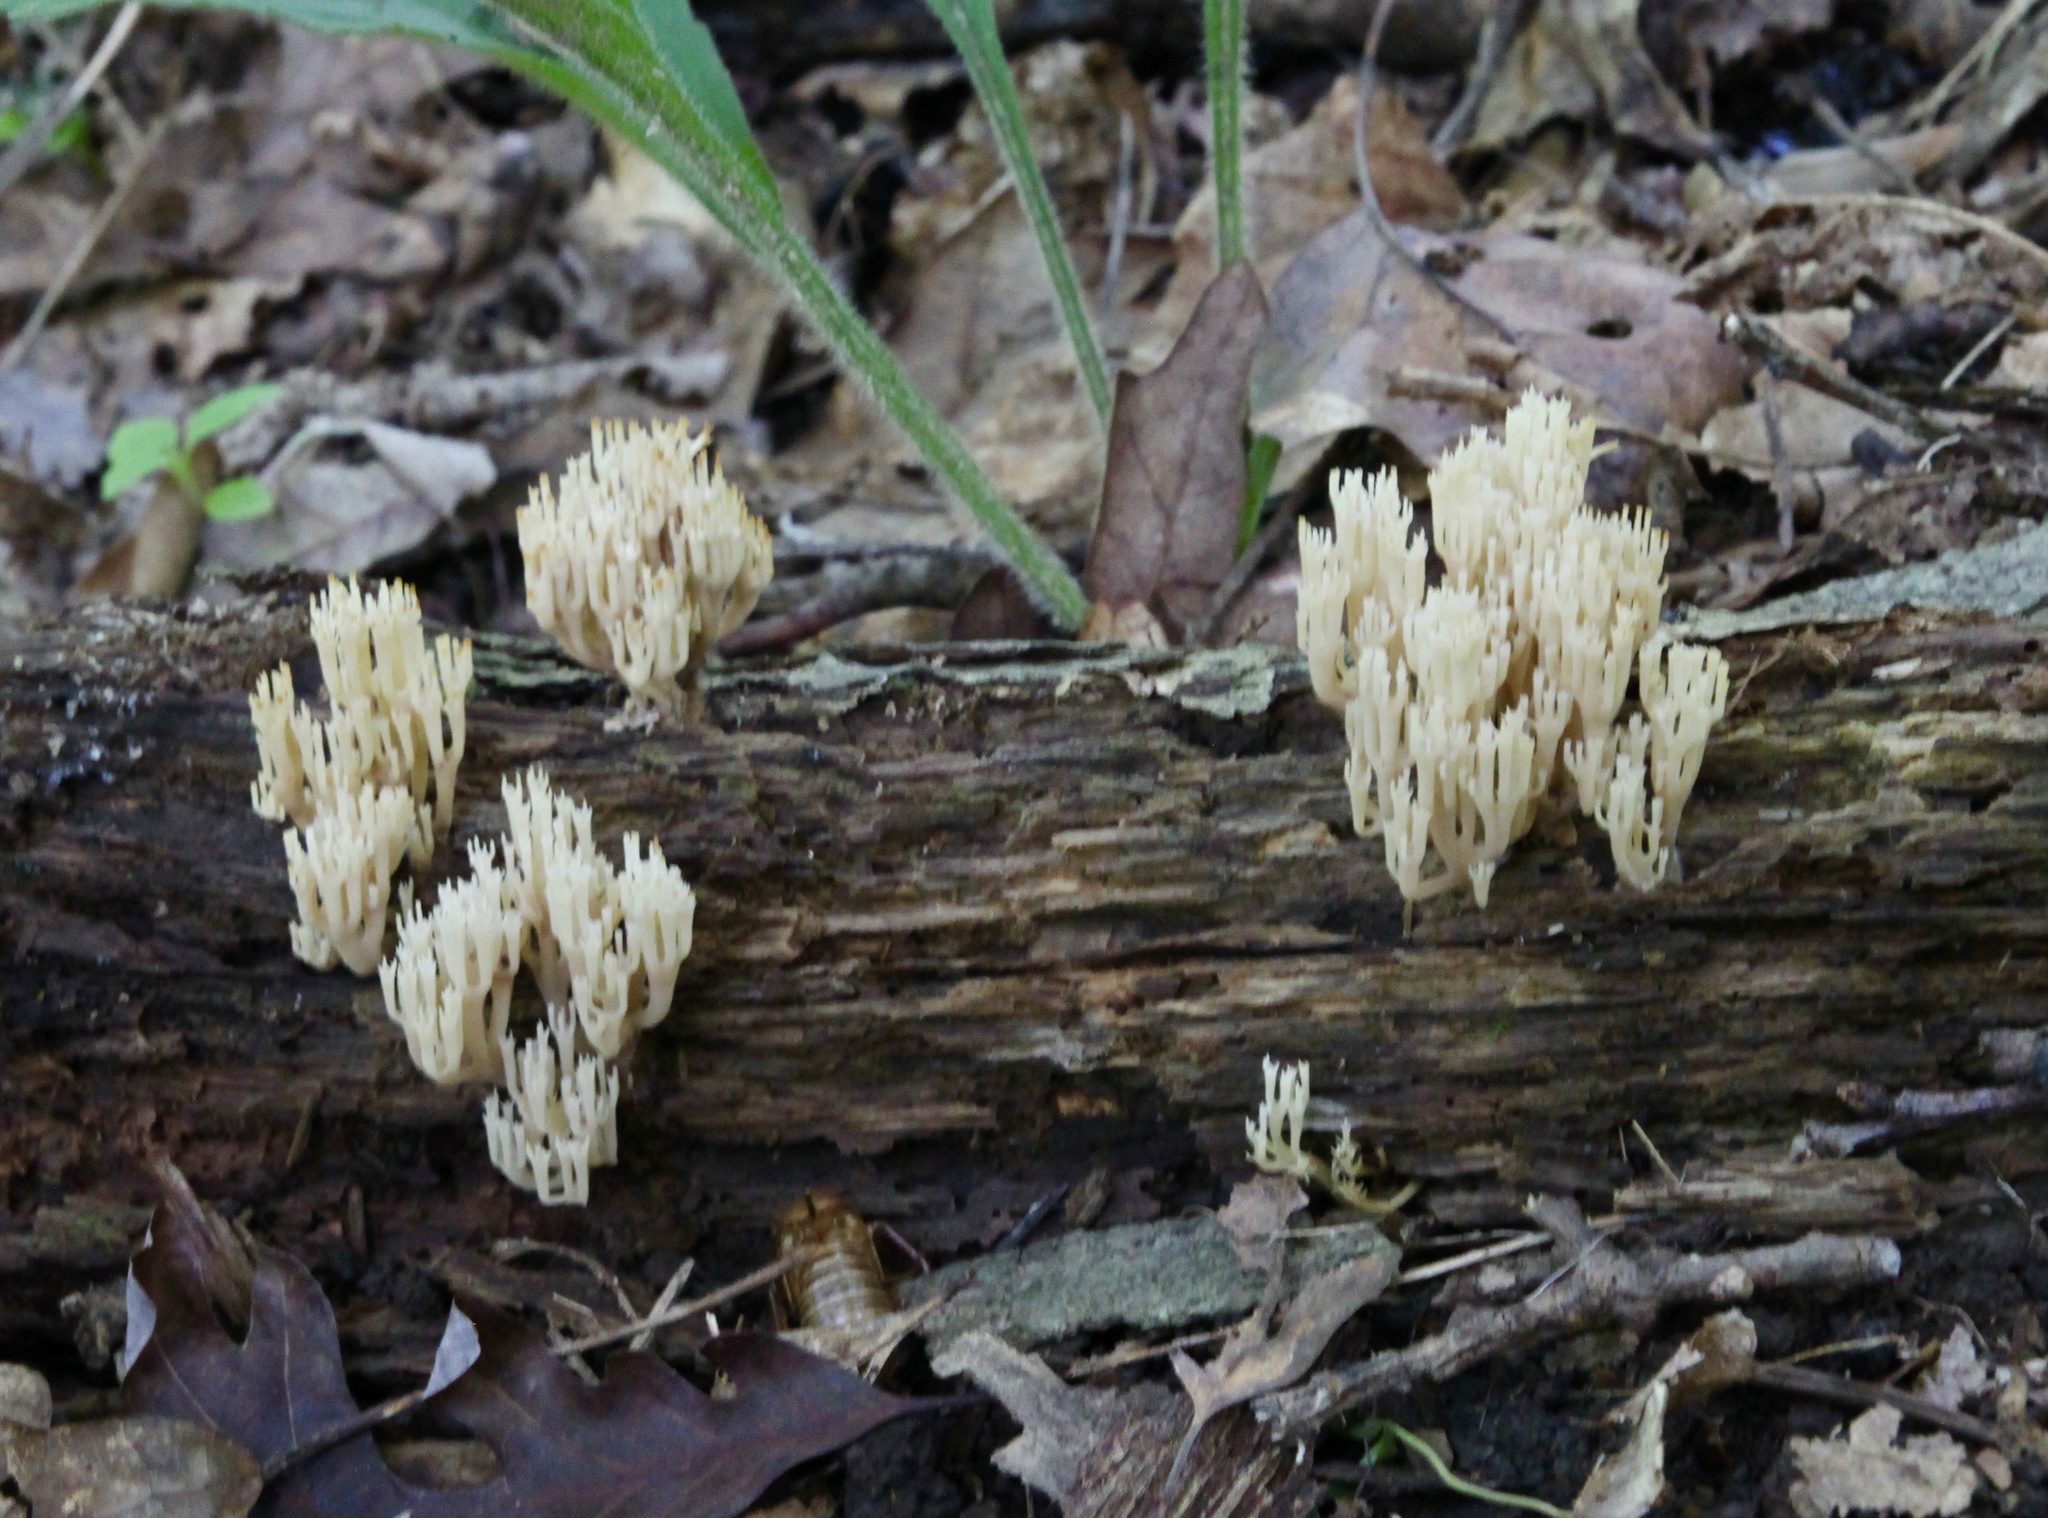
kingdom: Fungi
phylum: Basidiomycota
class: Agaricomycetes
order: Russulales
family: Auriscalpiaceae
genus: Artomyces
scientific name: Artomyces pyxidatus
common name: Crown-tipped coral fungus
